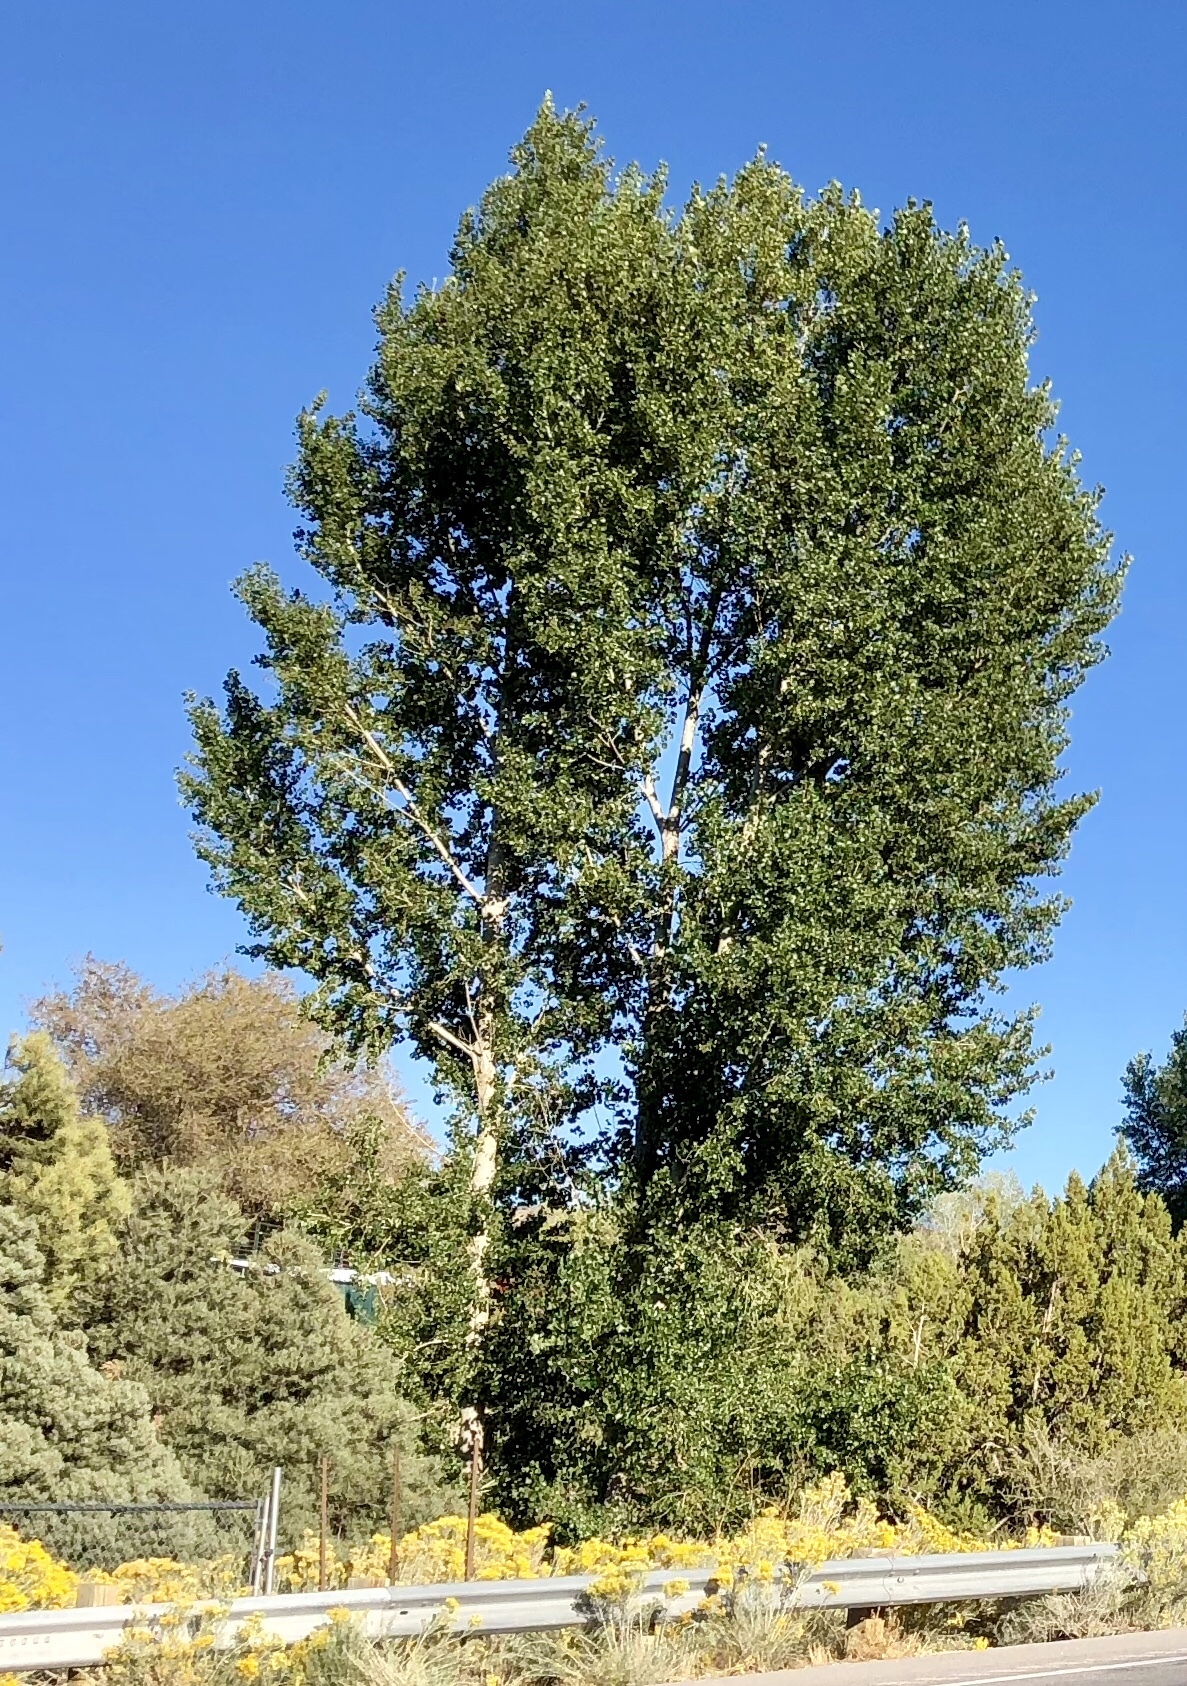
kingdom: Plantae
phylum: Tracheophyta
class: Magnoliopsida
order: Malpighiales
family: Salicaceae
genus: Populus
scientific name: Populus fremontii
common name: Fremont's cottonwood
